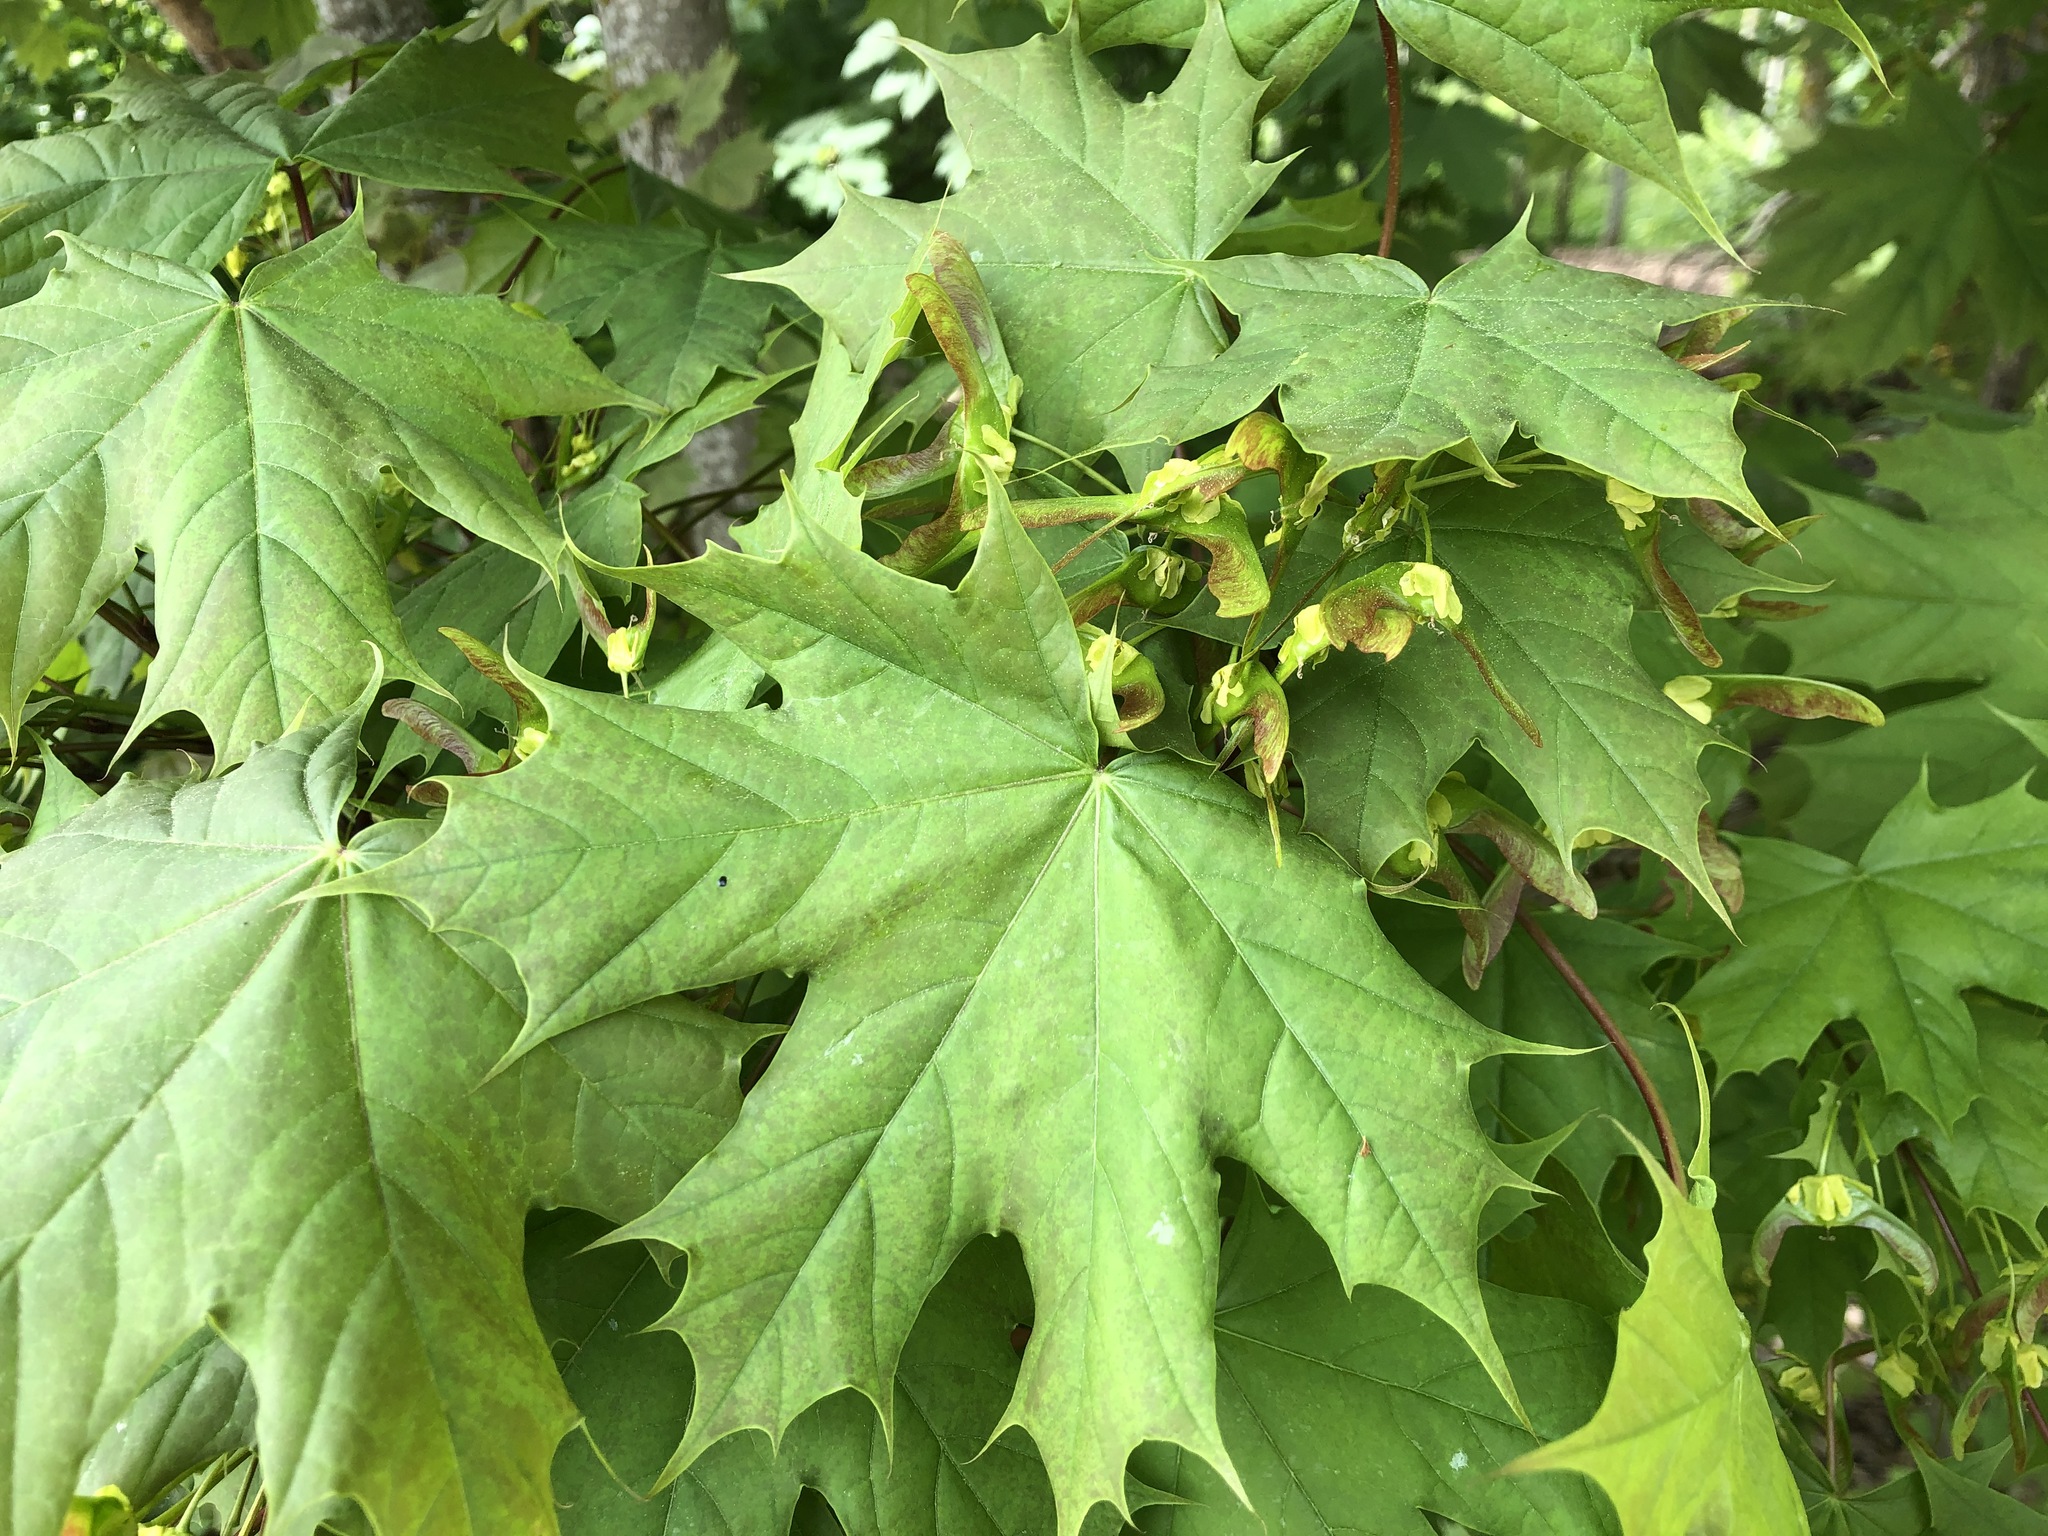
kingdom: Plantae
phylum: Tracheophyta
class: Magnoliopsida
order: Sapindales
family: Sapindaceae
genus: Acer
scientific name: Acer platanoides
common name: Norway maple
